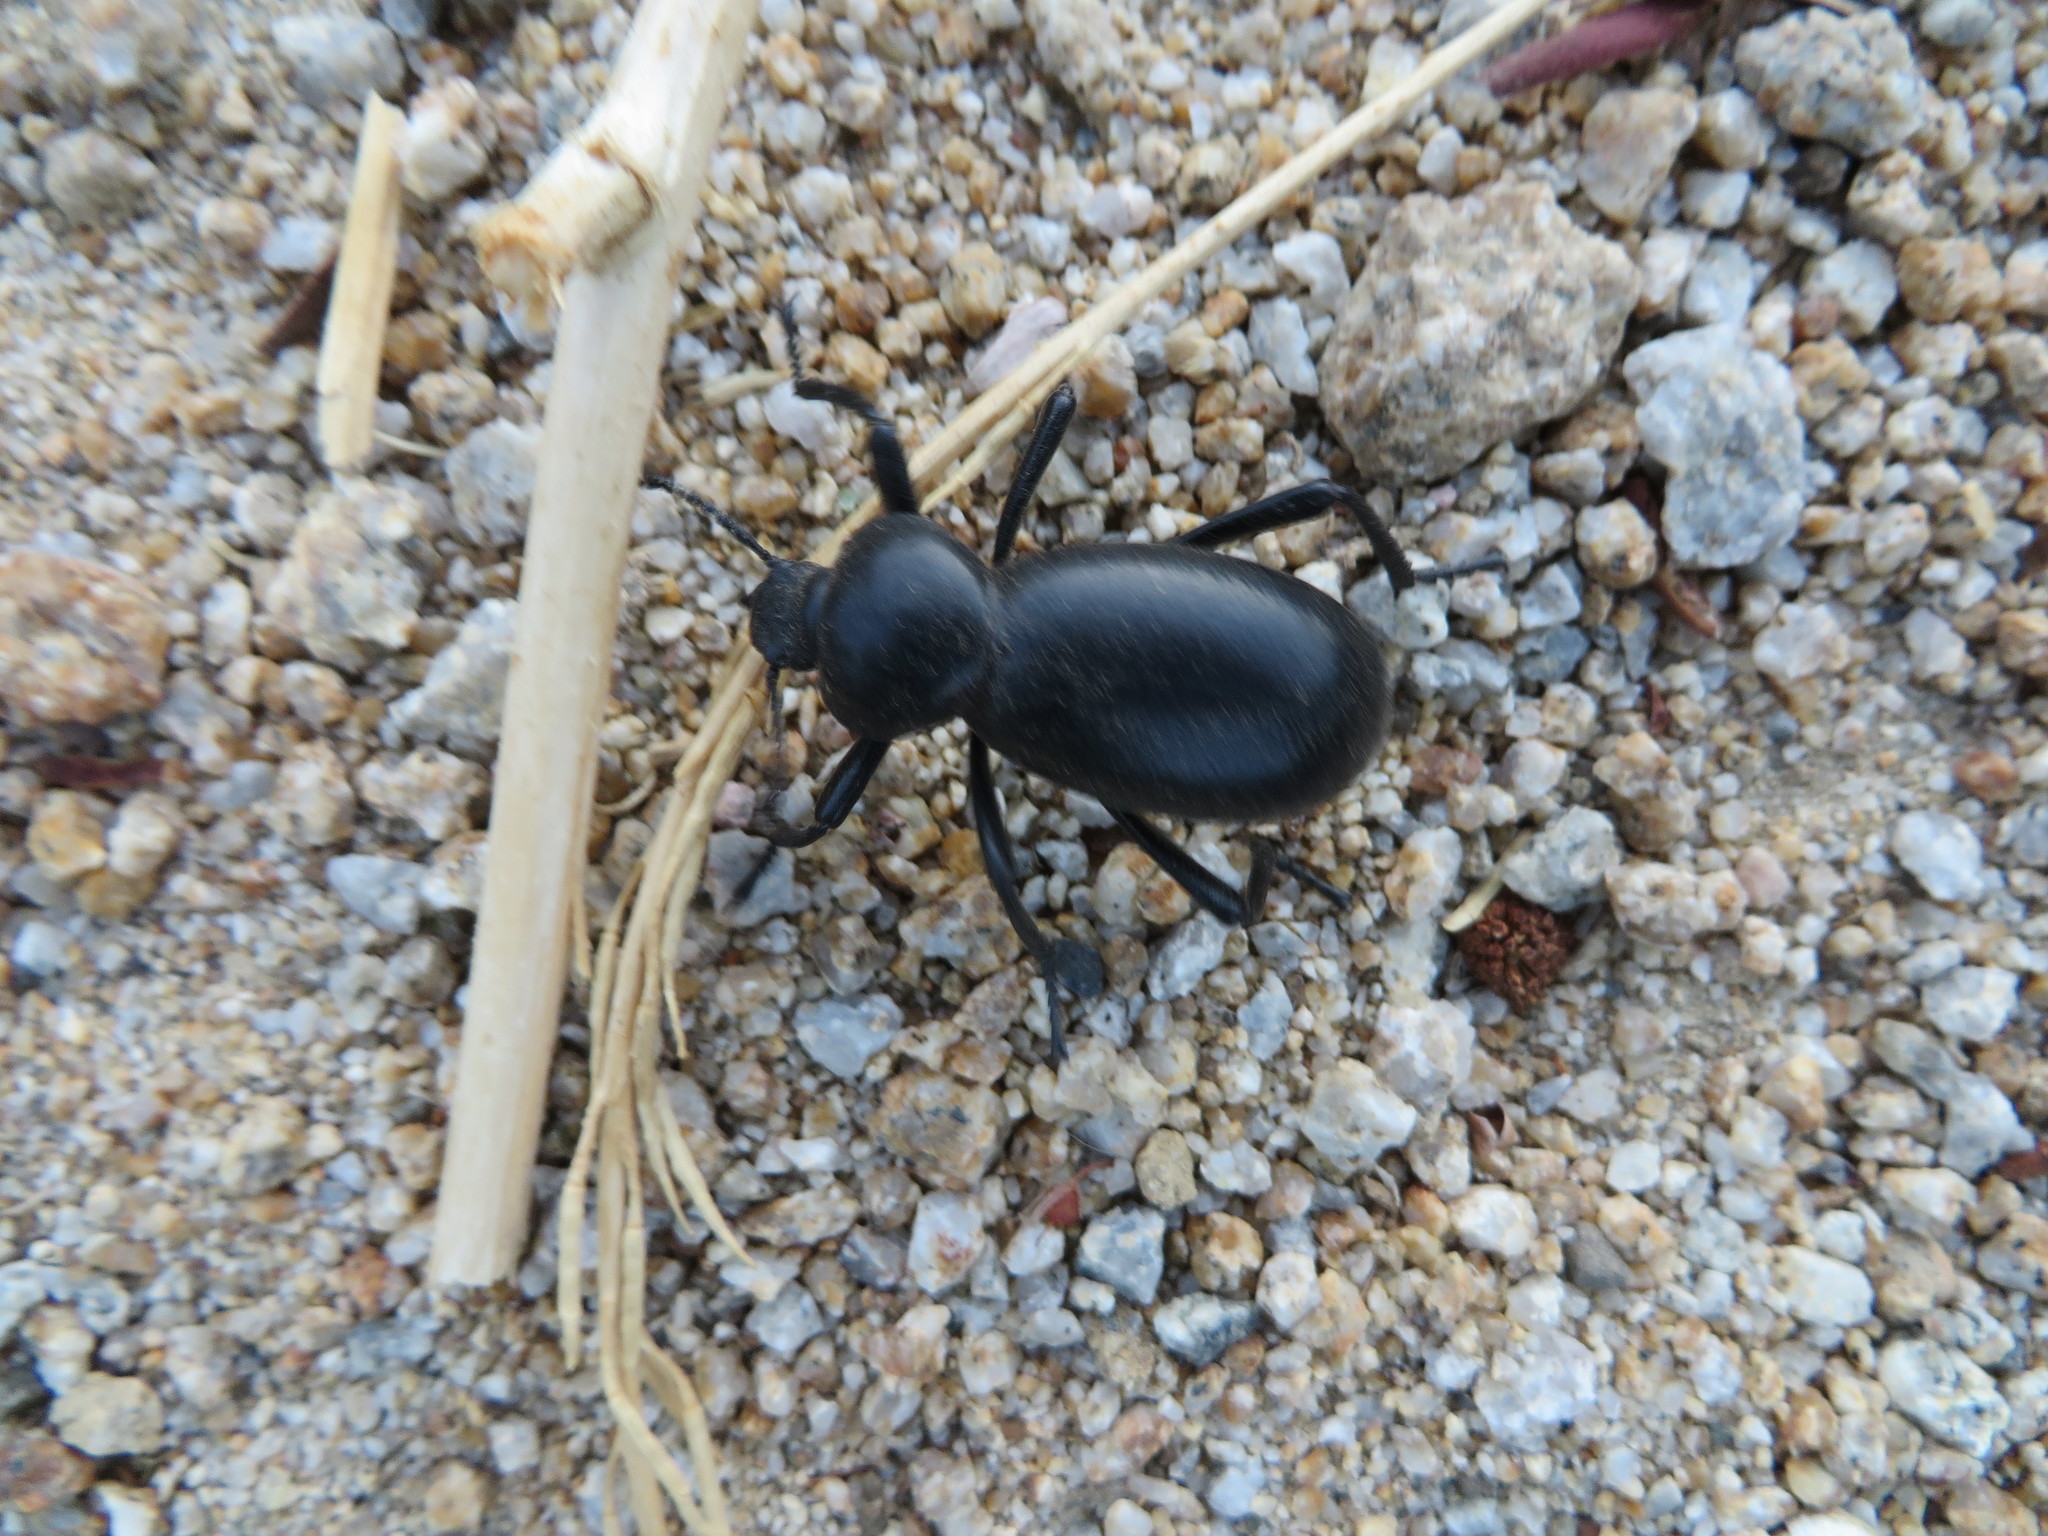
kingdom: Animalia
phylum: Arthropoda
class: Insecta
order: Coleoptera
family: Tenebrionidae
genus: Eleodes
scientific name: Eleodes grandicollis
